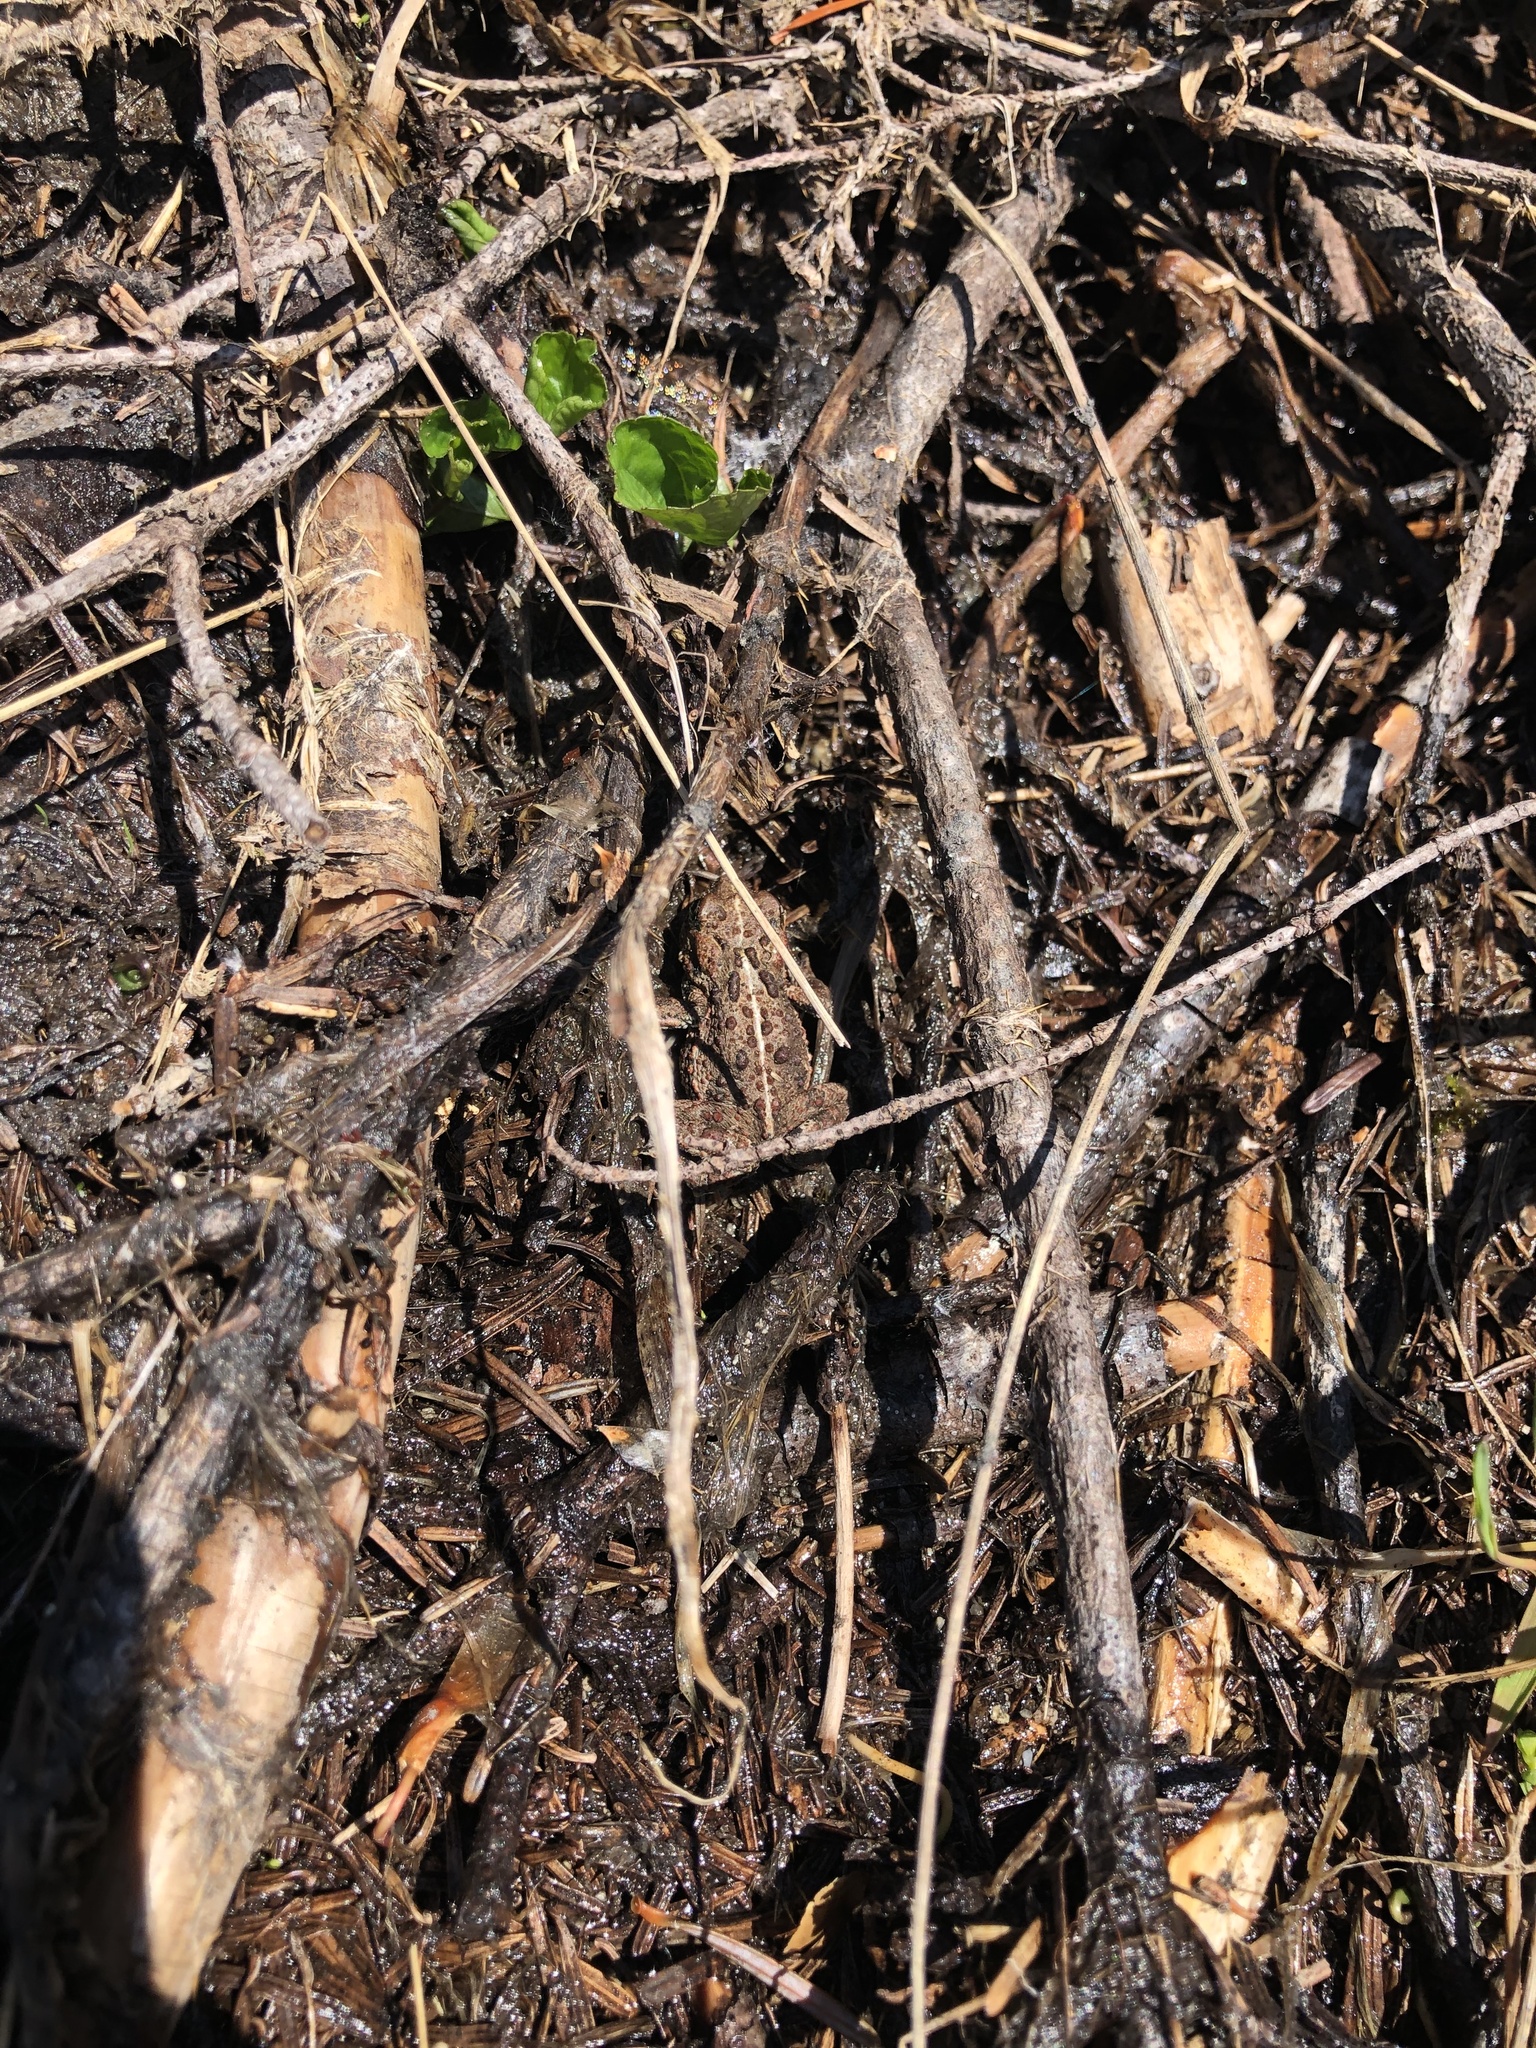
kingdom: Animalia
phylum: Chordata
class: Amphibia
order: Anura
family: Bufonidae
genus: Anaxyrus
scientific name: Anaxyrus boreas
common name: Western toad
